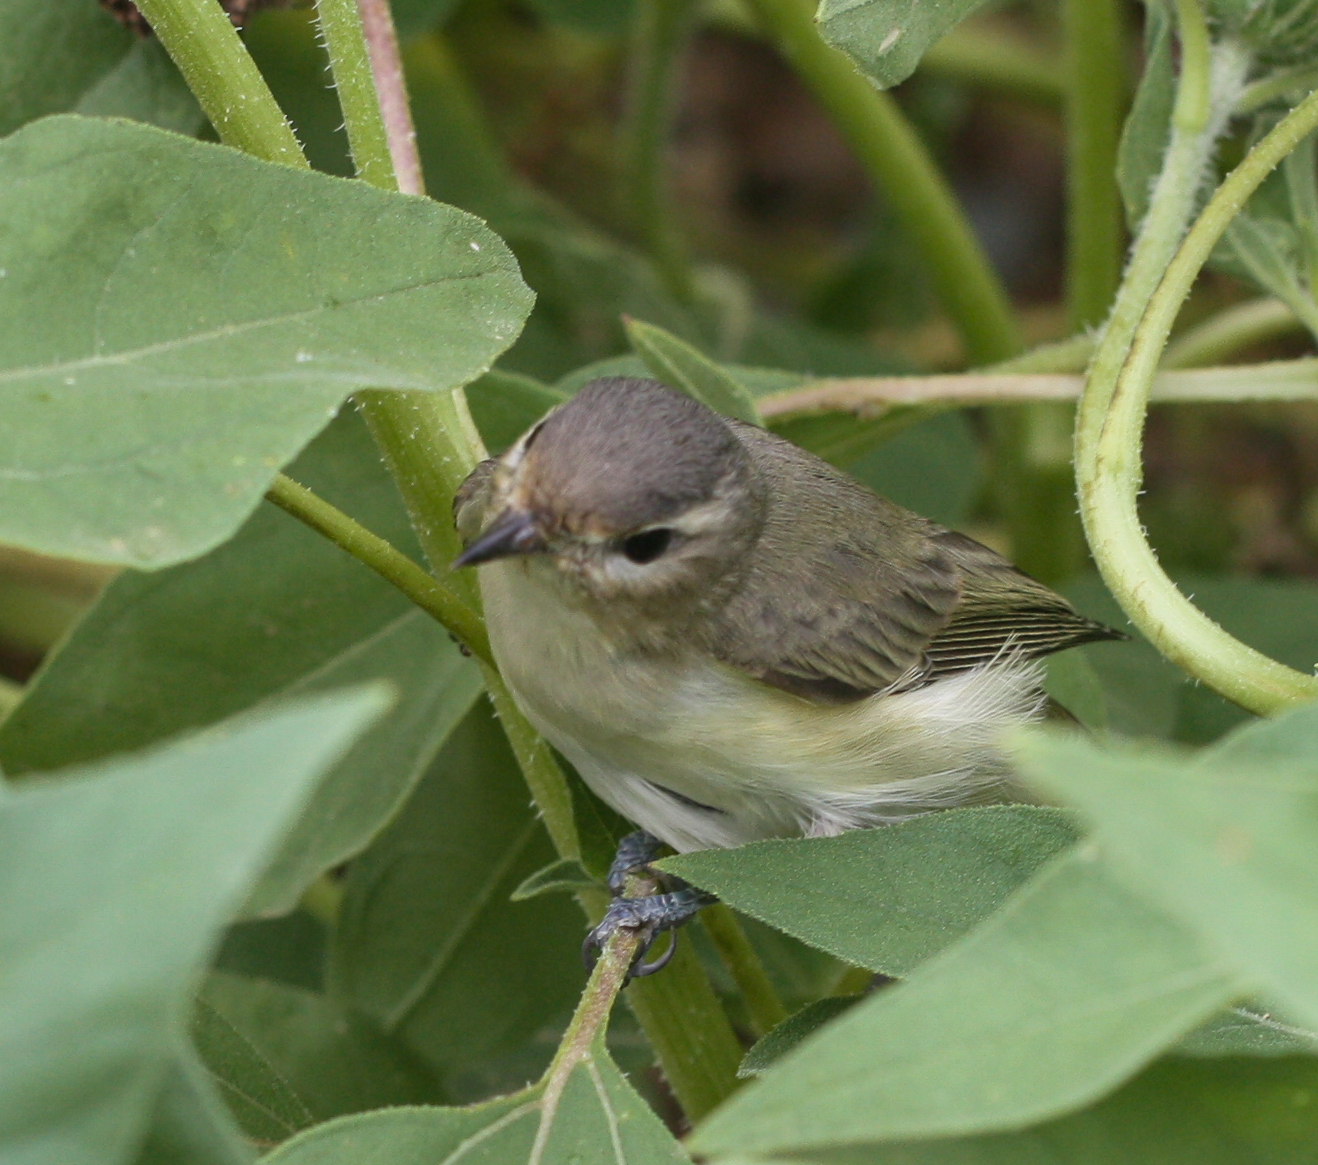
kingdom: Animalia
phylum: Chordata
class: Aves
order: Passeriformes
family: Vireonidae
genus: Vireo
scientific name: Vireo gilvus
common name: Warbling vireo
